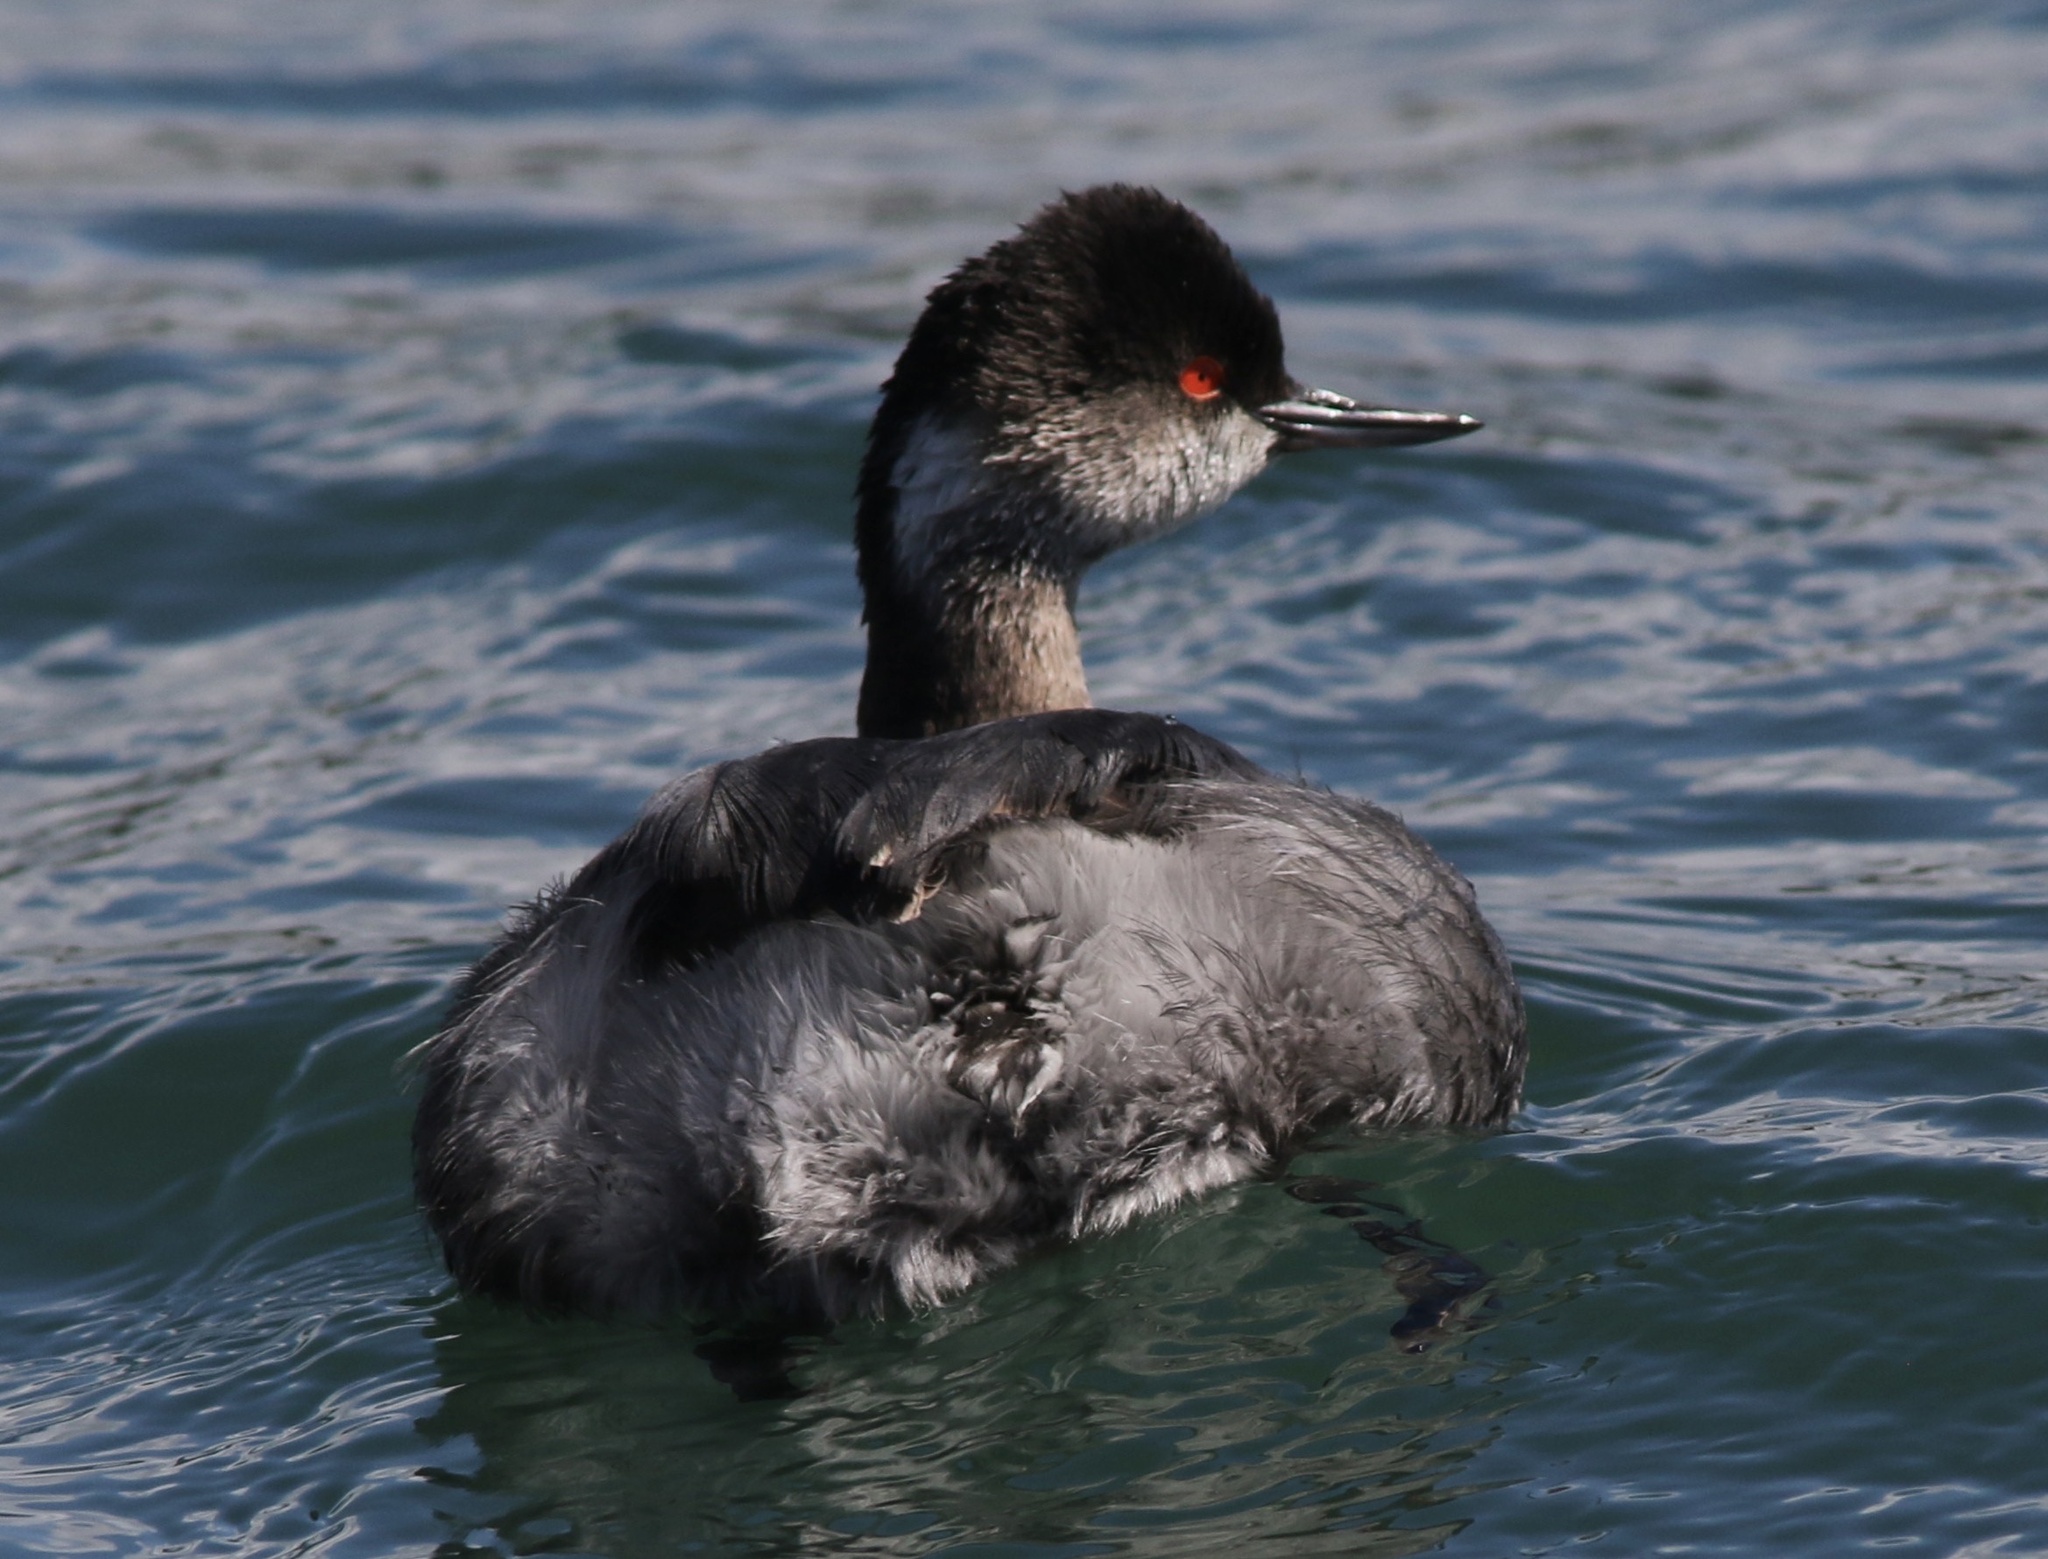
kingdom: Animalia
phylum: Chordata
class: Aves
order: Podicipediformes
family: Podicipedidae
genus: Podiceps
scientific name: Podiceps nigricollis
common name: Black-necked grebe
